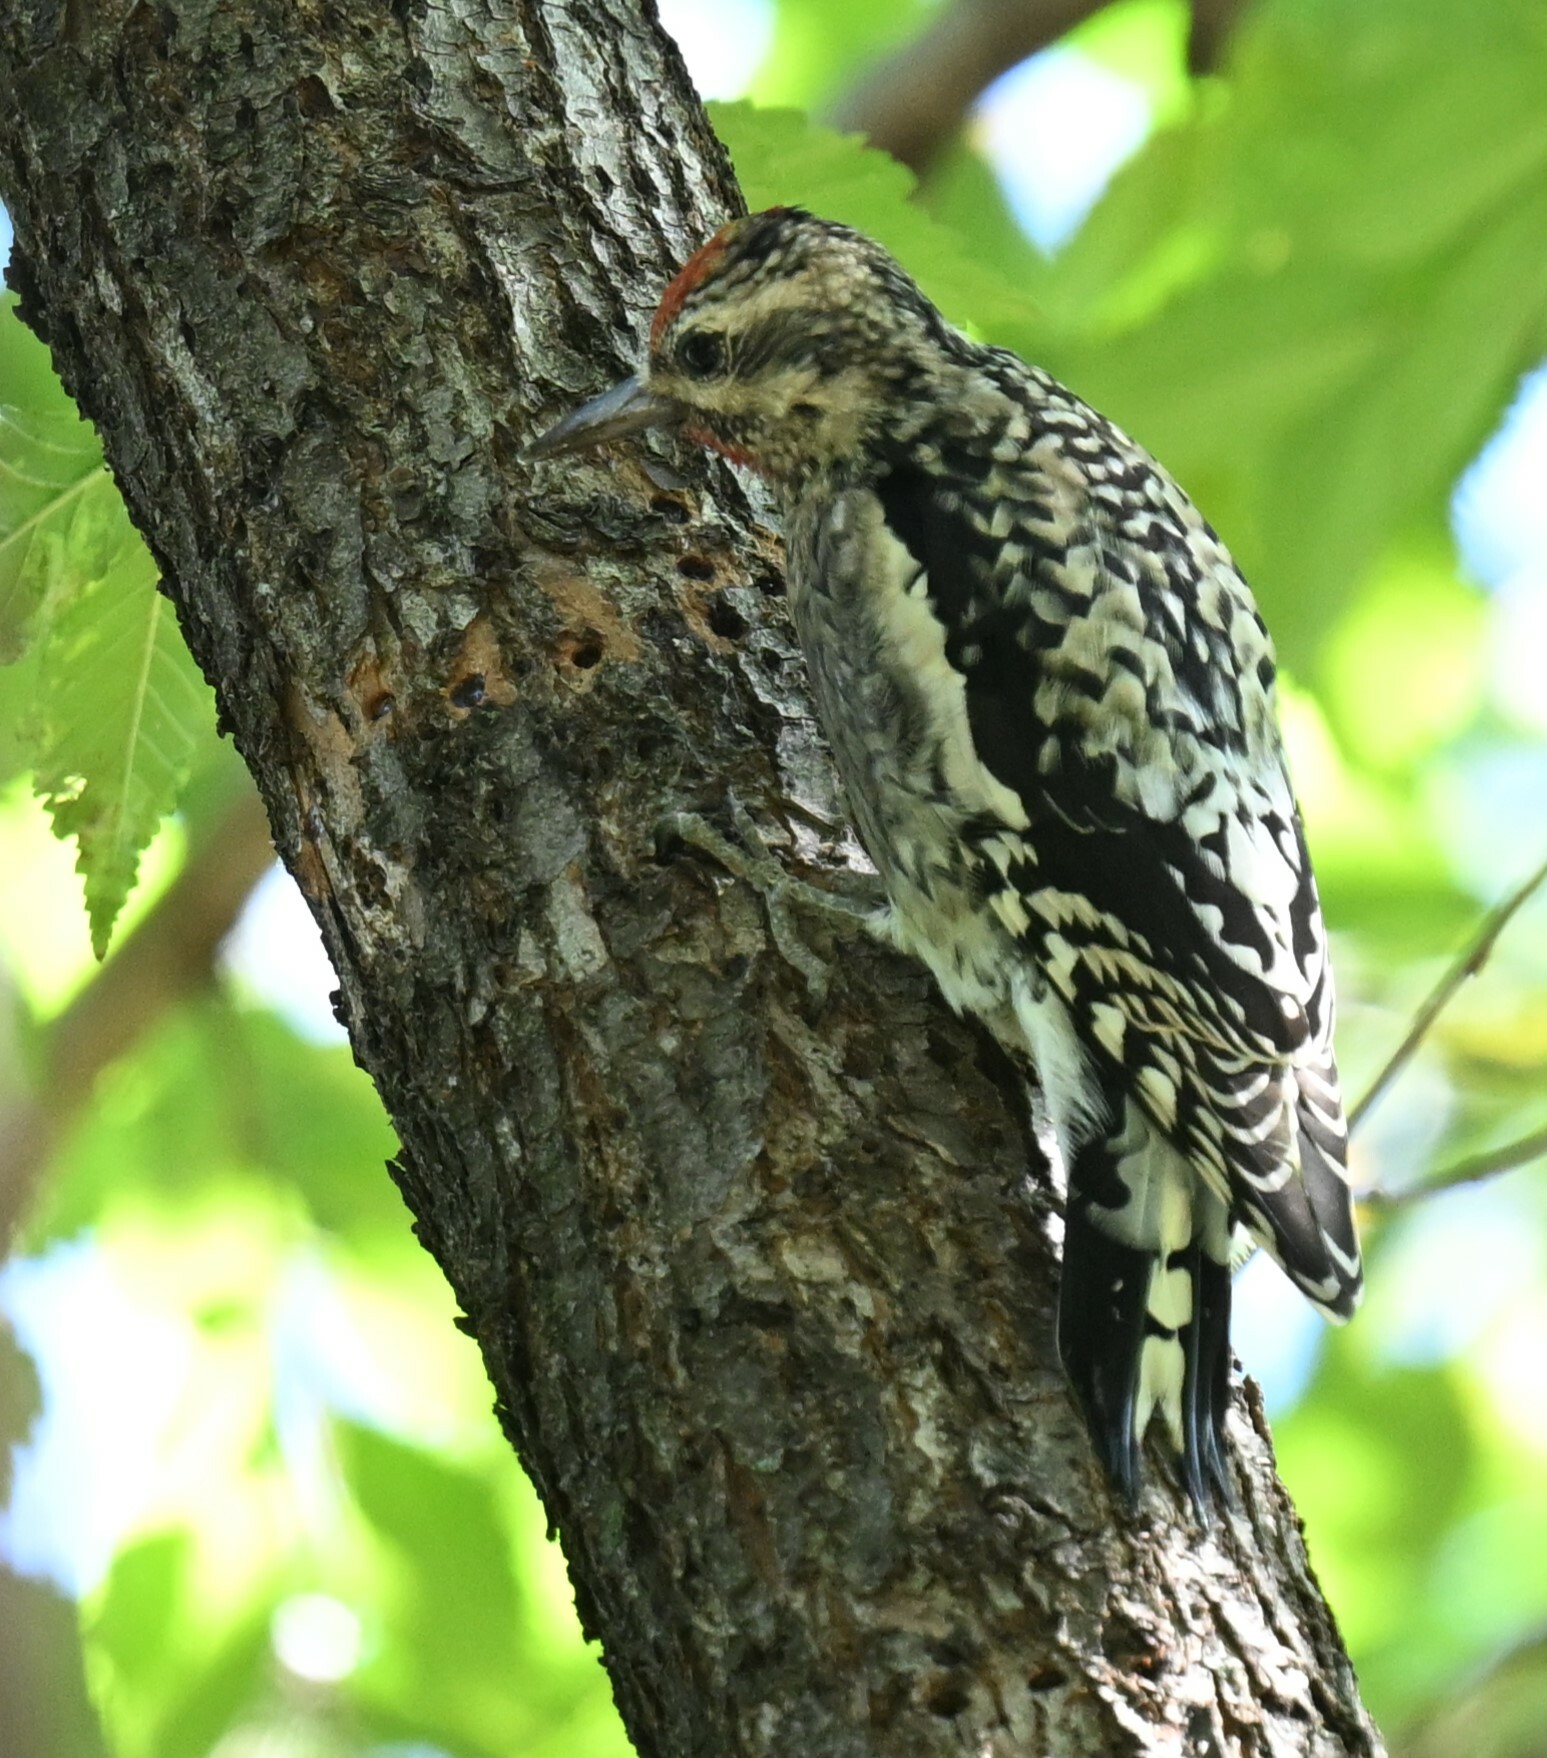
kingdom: Animalia
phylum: Chordata
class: Aves
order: Piciformes
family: Picidae
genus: Sphyrapicus
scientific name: Sphyrapicus varius
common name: Yellow-bellied sapsucker
